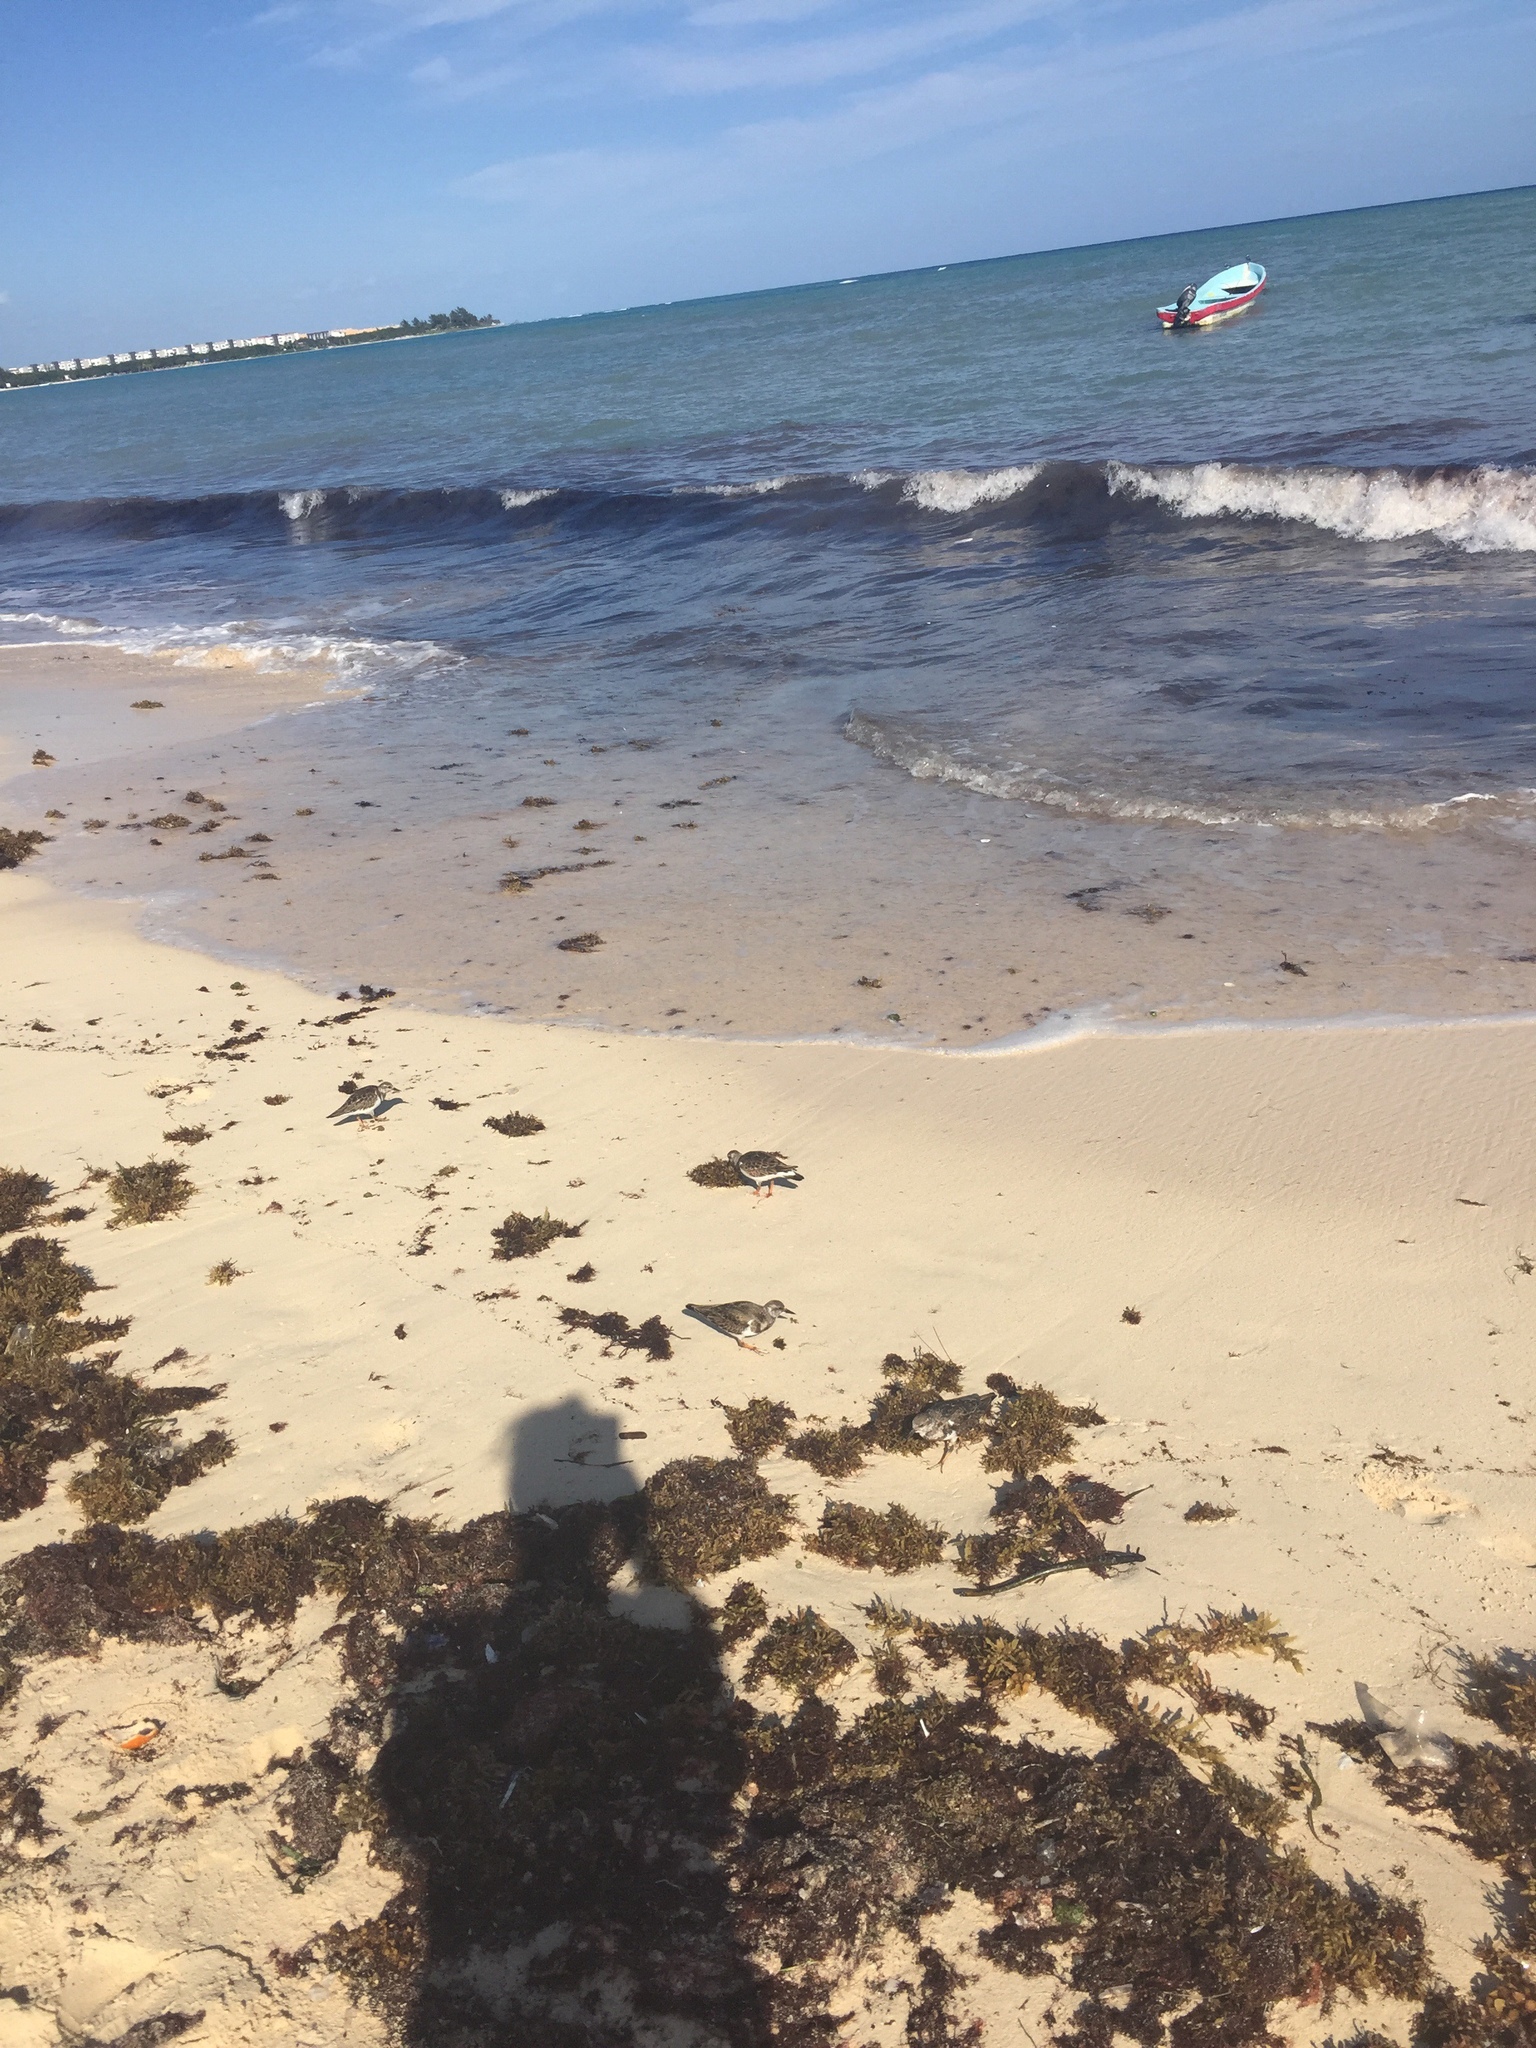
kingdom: Animalia
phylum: Chordata
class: Aves
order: Charadriiformes
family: Scolopacidae
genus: Arenaria
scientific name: Arenaria interpres
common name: Ruddy turnstone
